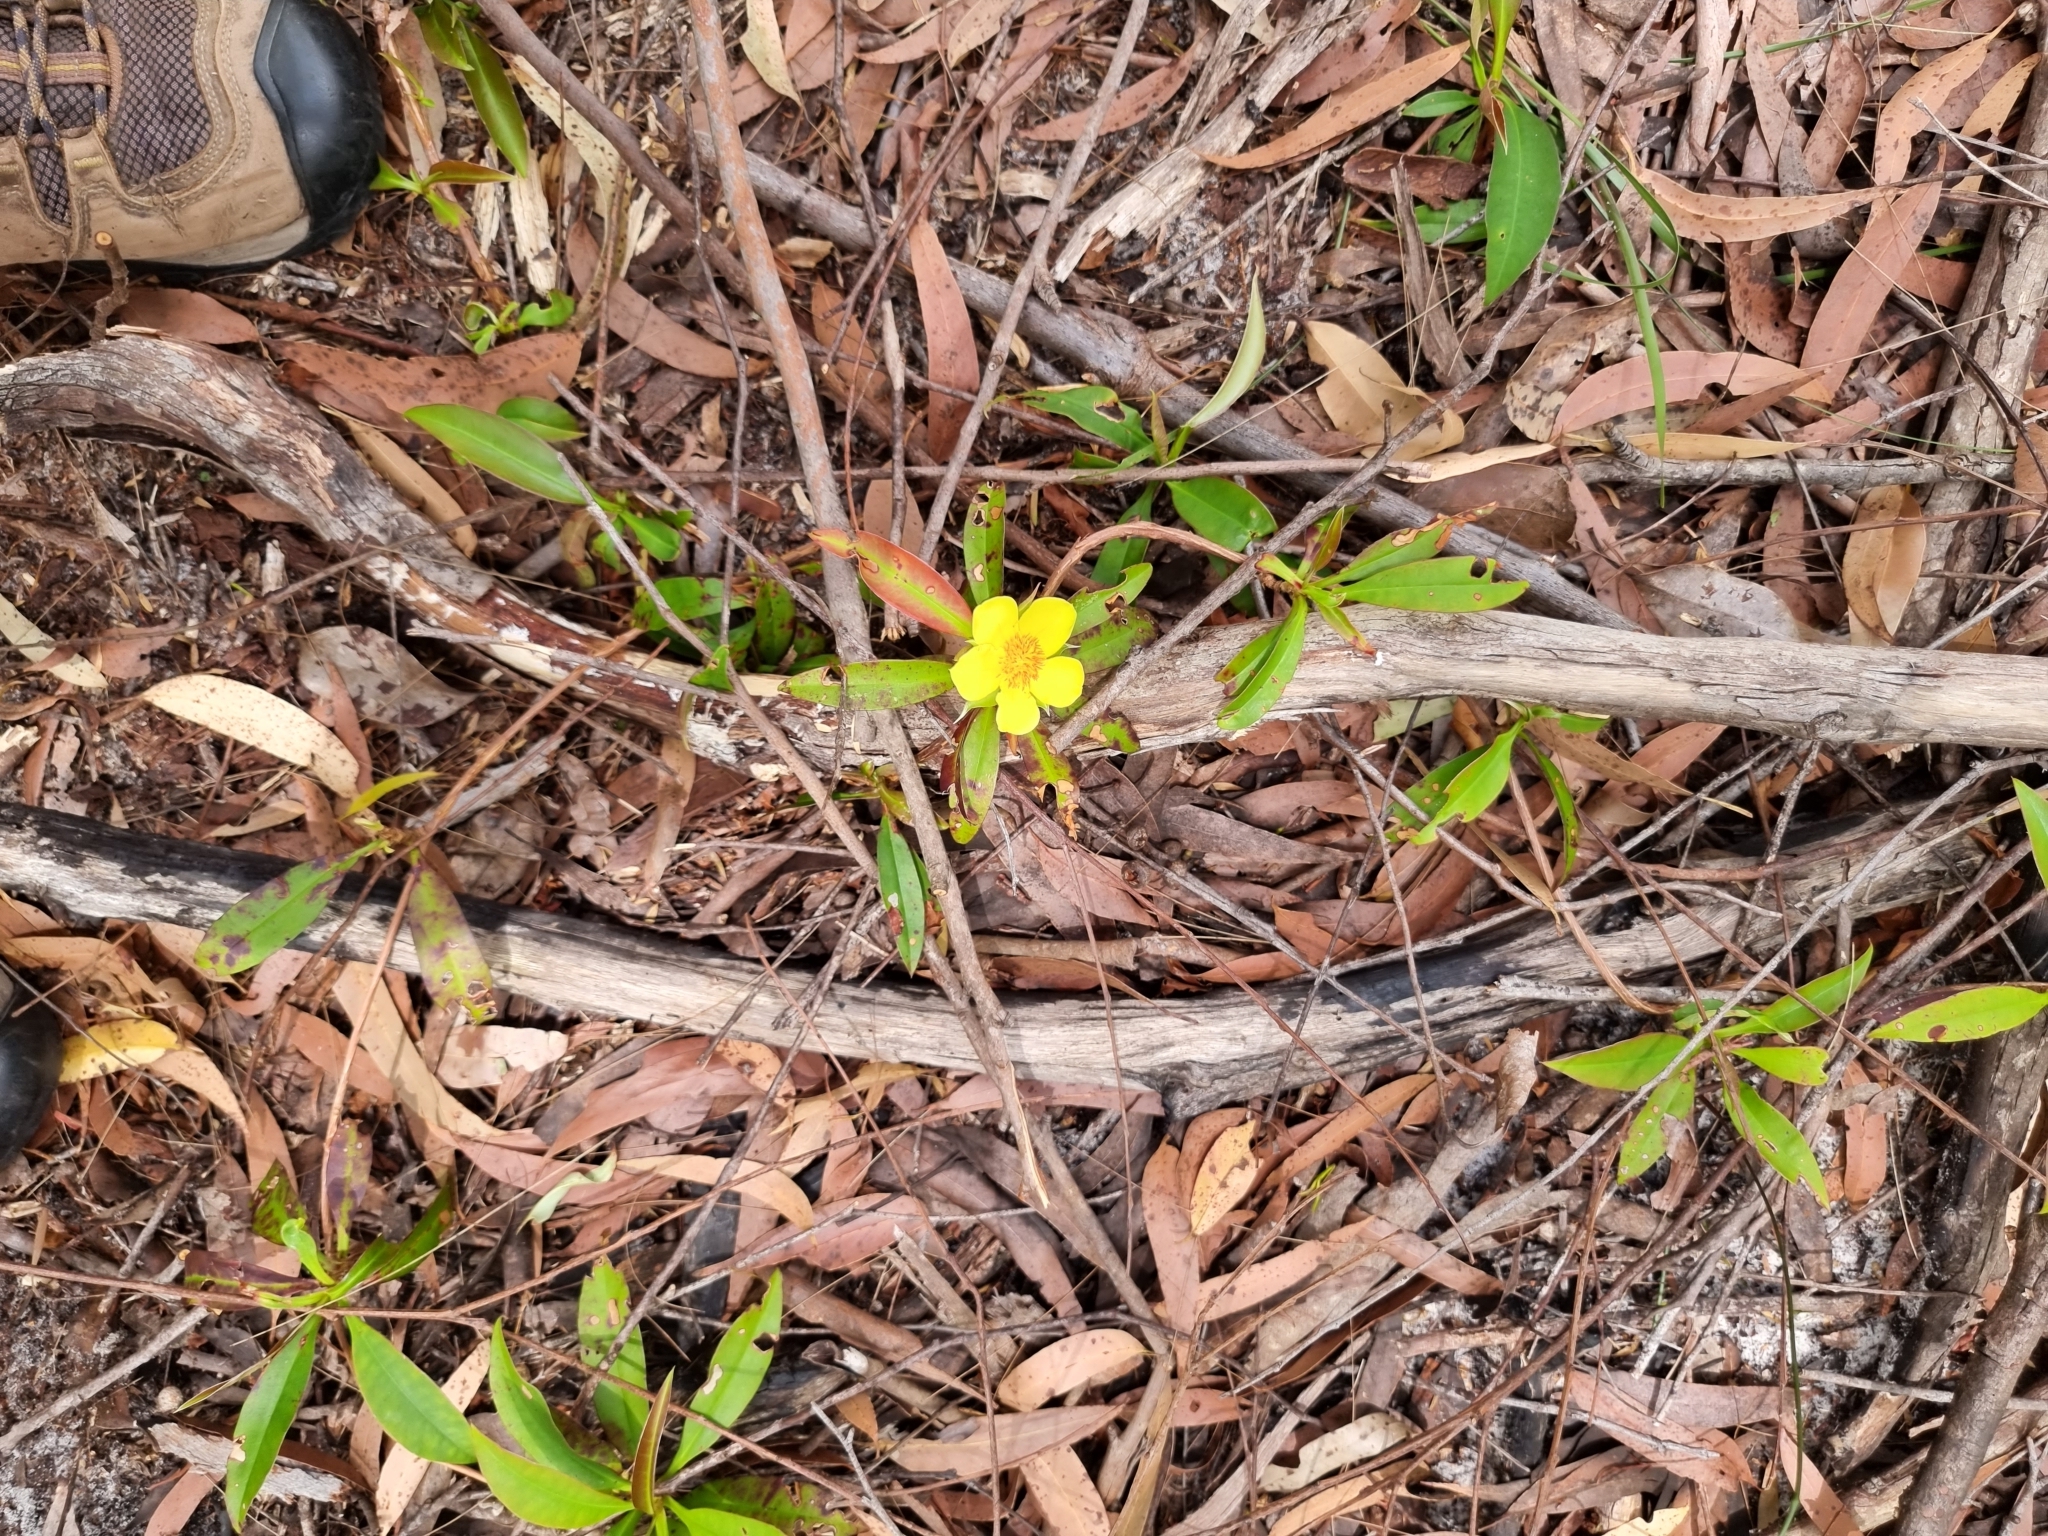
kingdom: Plantae
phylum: Tracheophyta
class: Magnoliopsida
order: Dilleniales
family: Dilleniaceae
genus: Hibbertia
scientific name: Hibbertia scandens
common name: Climbing guinea-flower
